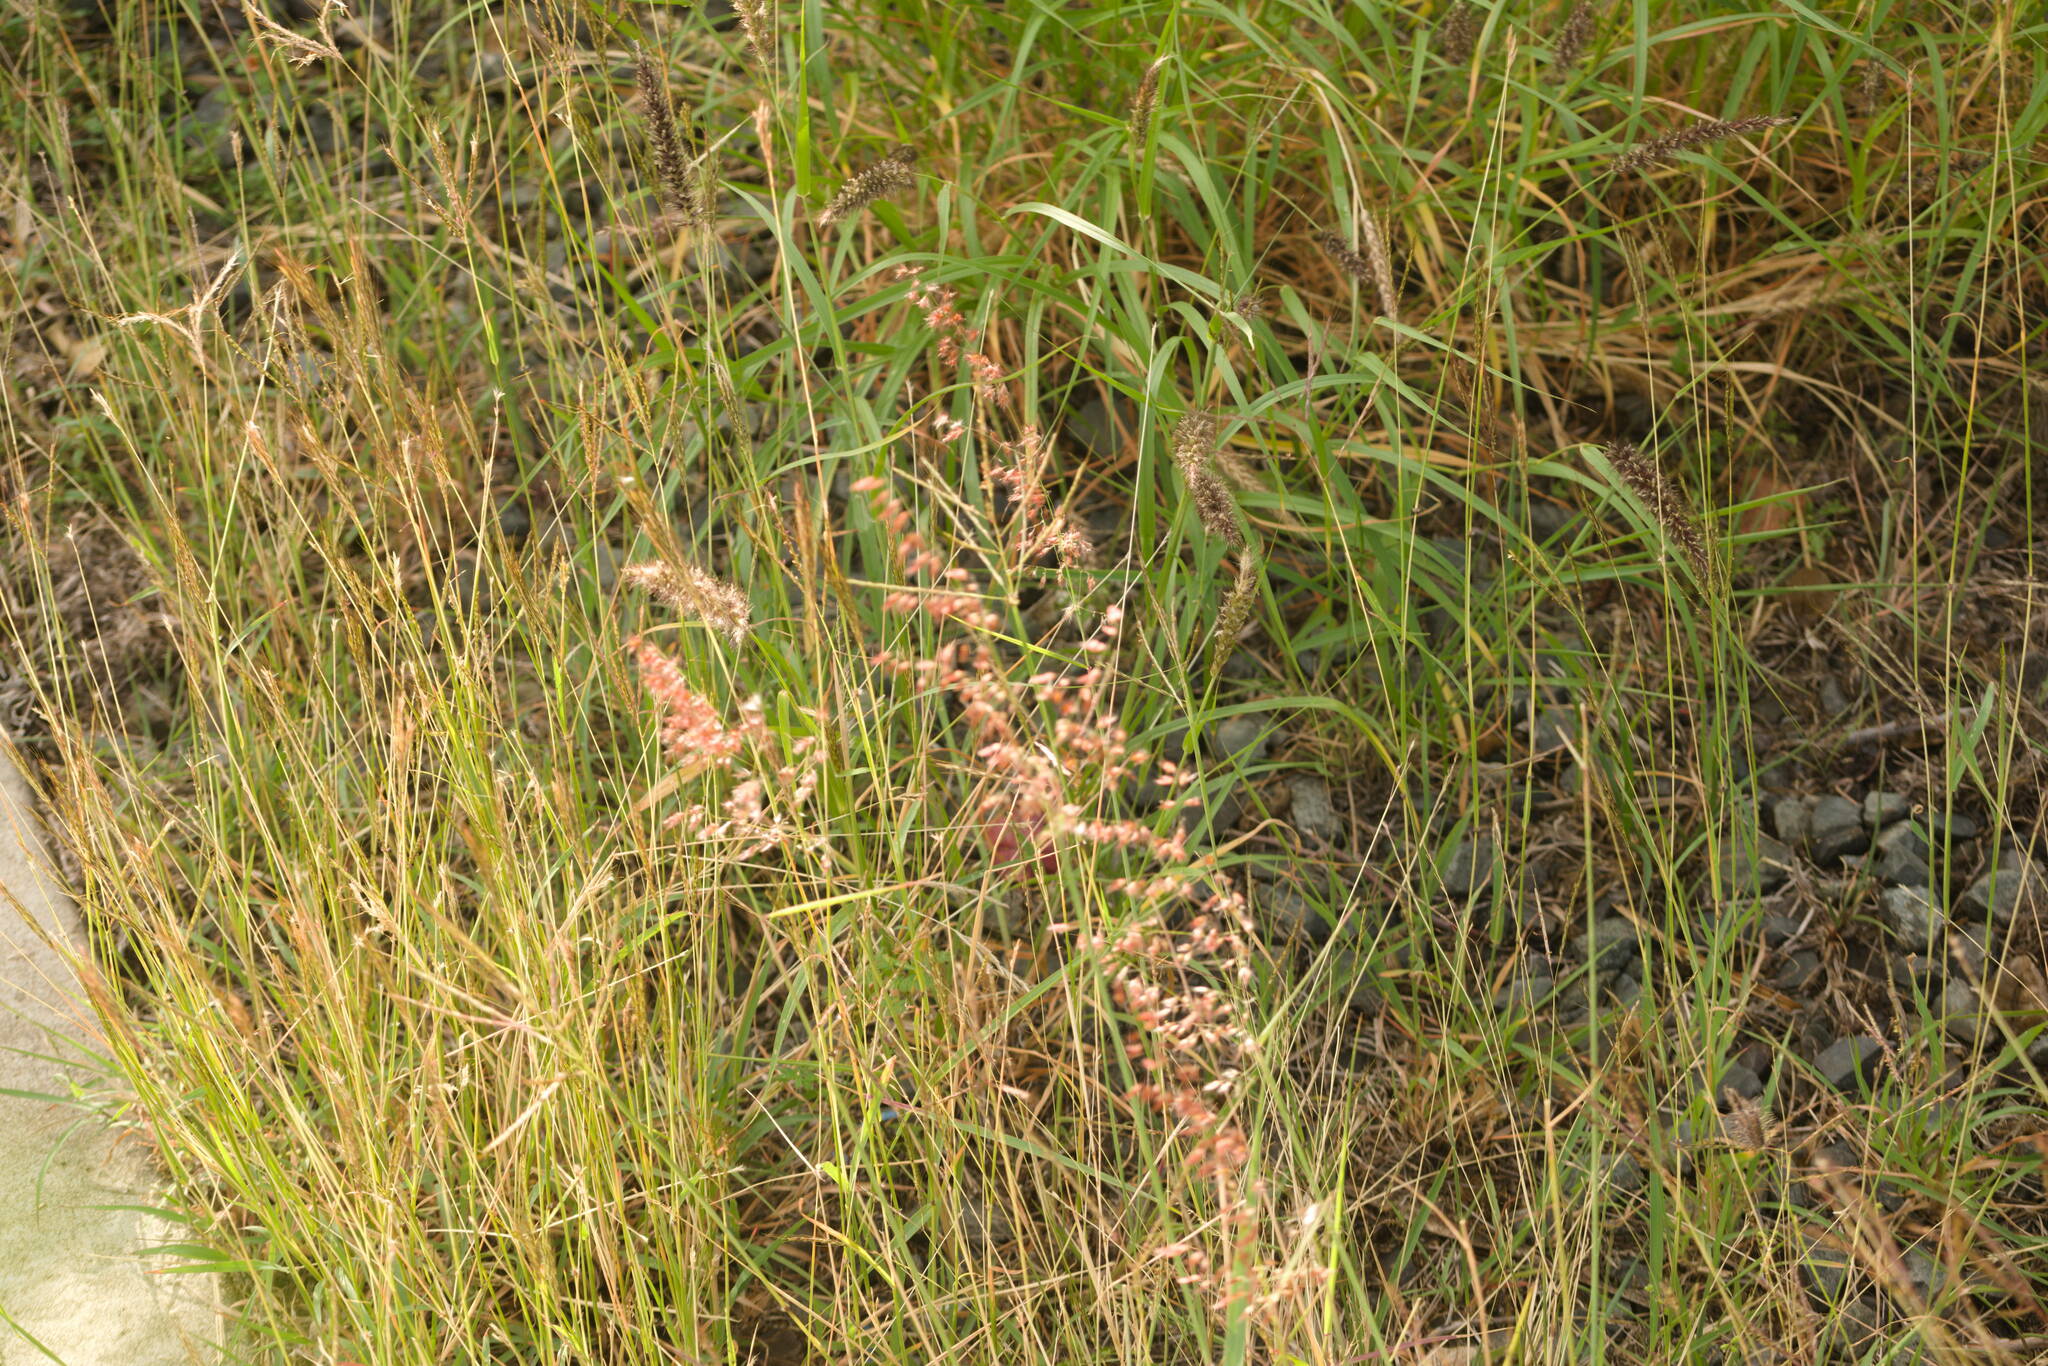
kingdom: Plantae
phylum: Tracheophyta
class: Liliopsida
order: Poales
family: Poaceae
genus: Melinis
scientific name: Melinis repens
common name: Rose natal grass
